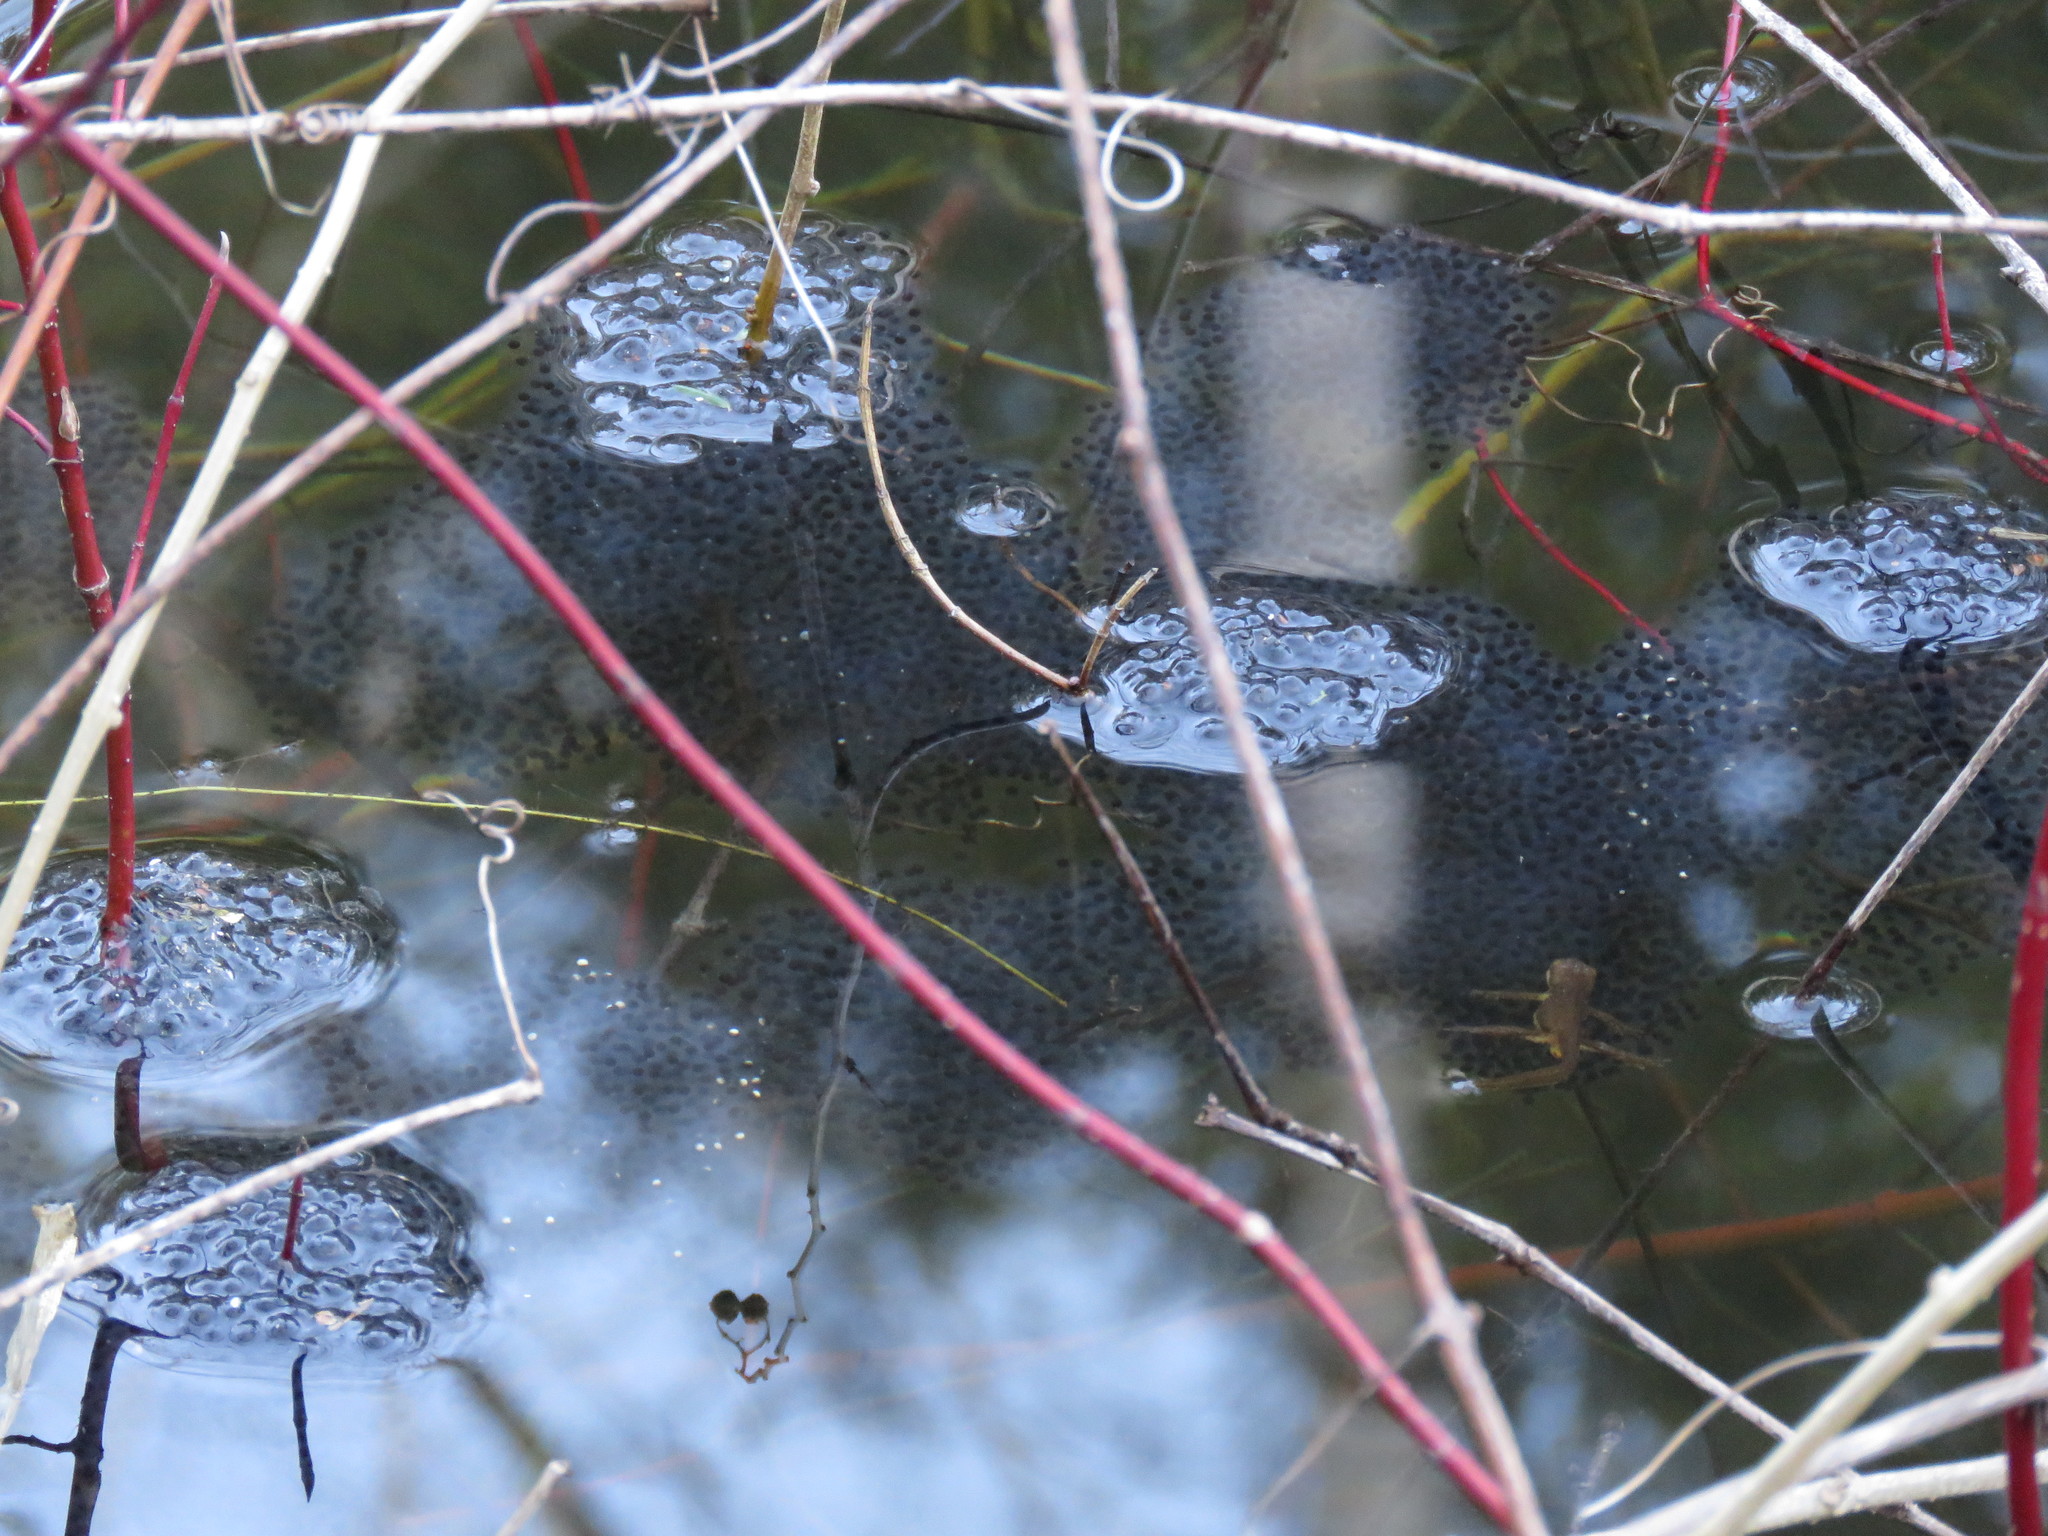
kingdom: Animalia
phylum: Chordata
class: Amphibia
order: Anura
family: Ranidae
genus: Lithobates
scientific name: Lithobates sylvaticus
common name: Wood frog
